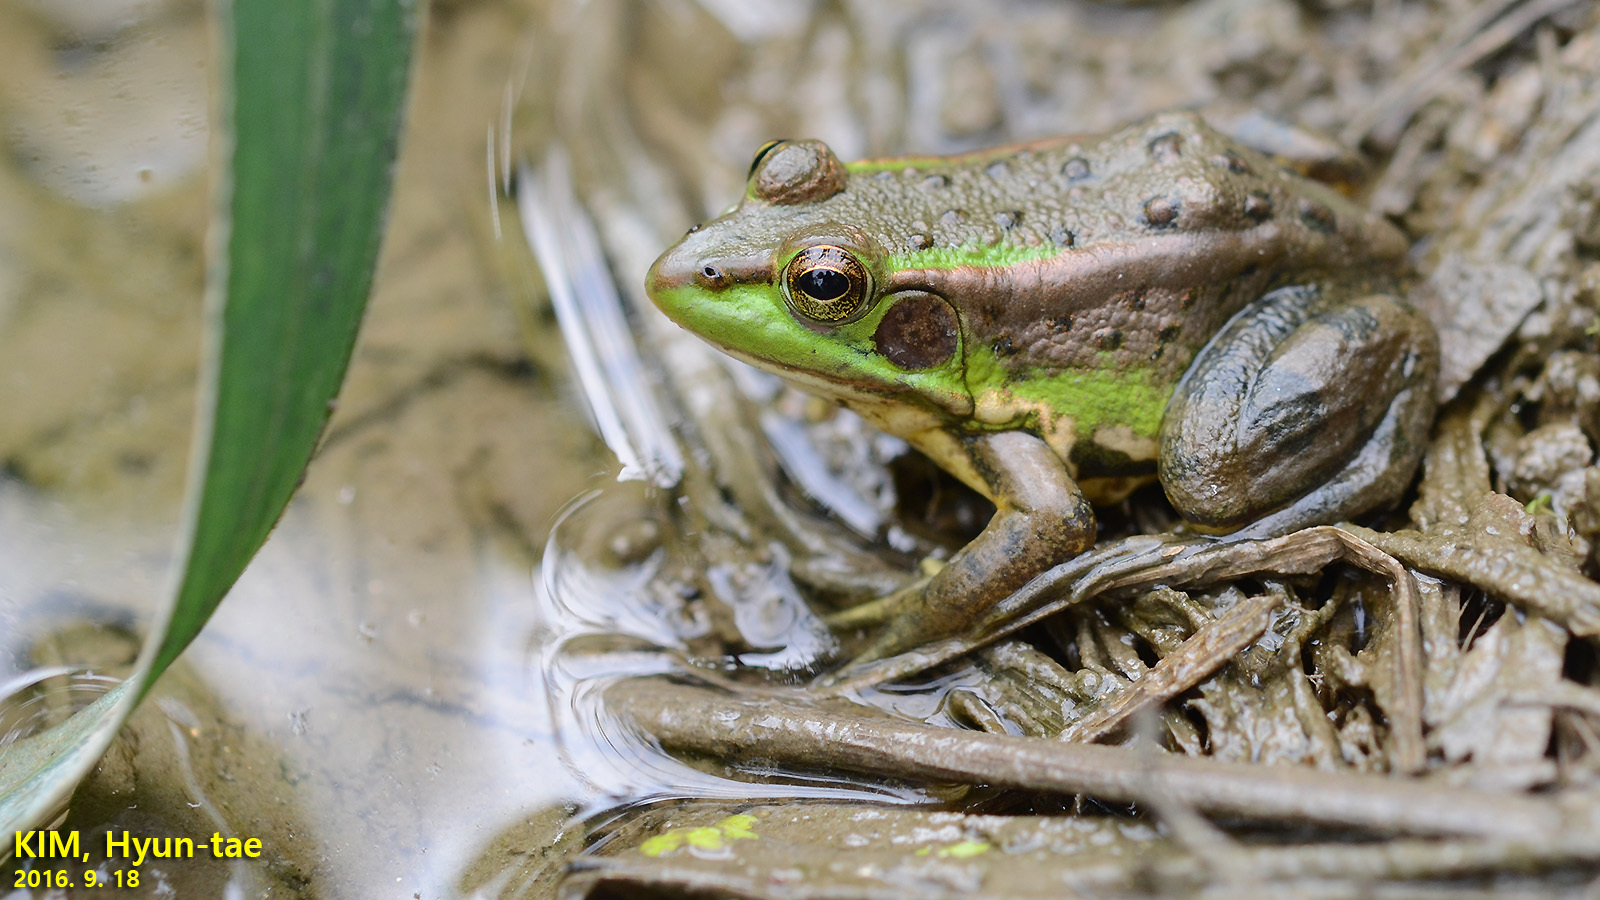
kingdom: Animalia
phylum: Chordata
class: Amphibia
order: Anura
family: Ranidae
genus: Pelophylax
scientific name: Pelophylax chosenicus
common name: Gold-spotted pond frog
